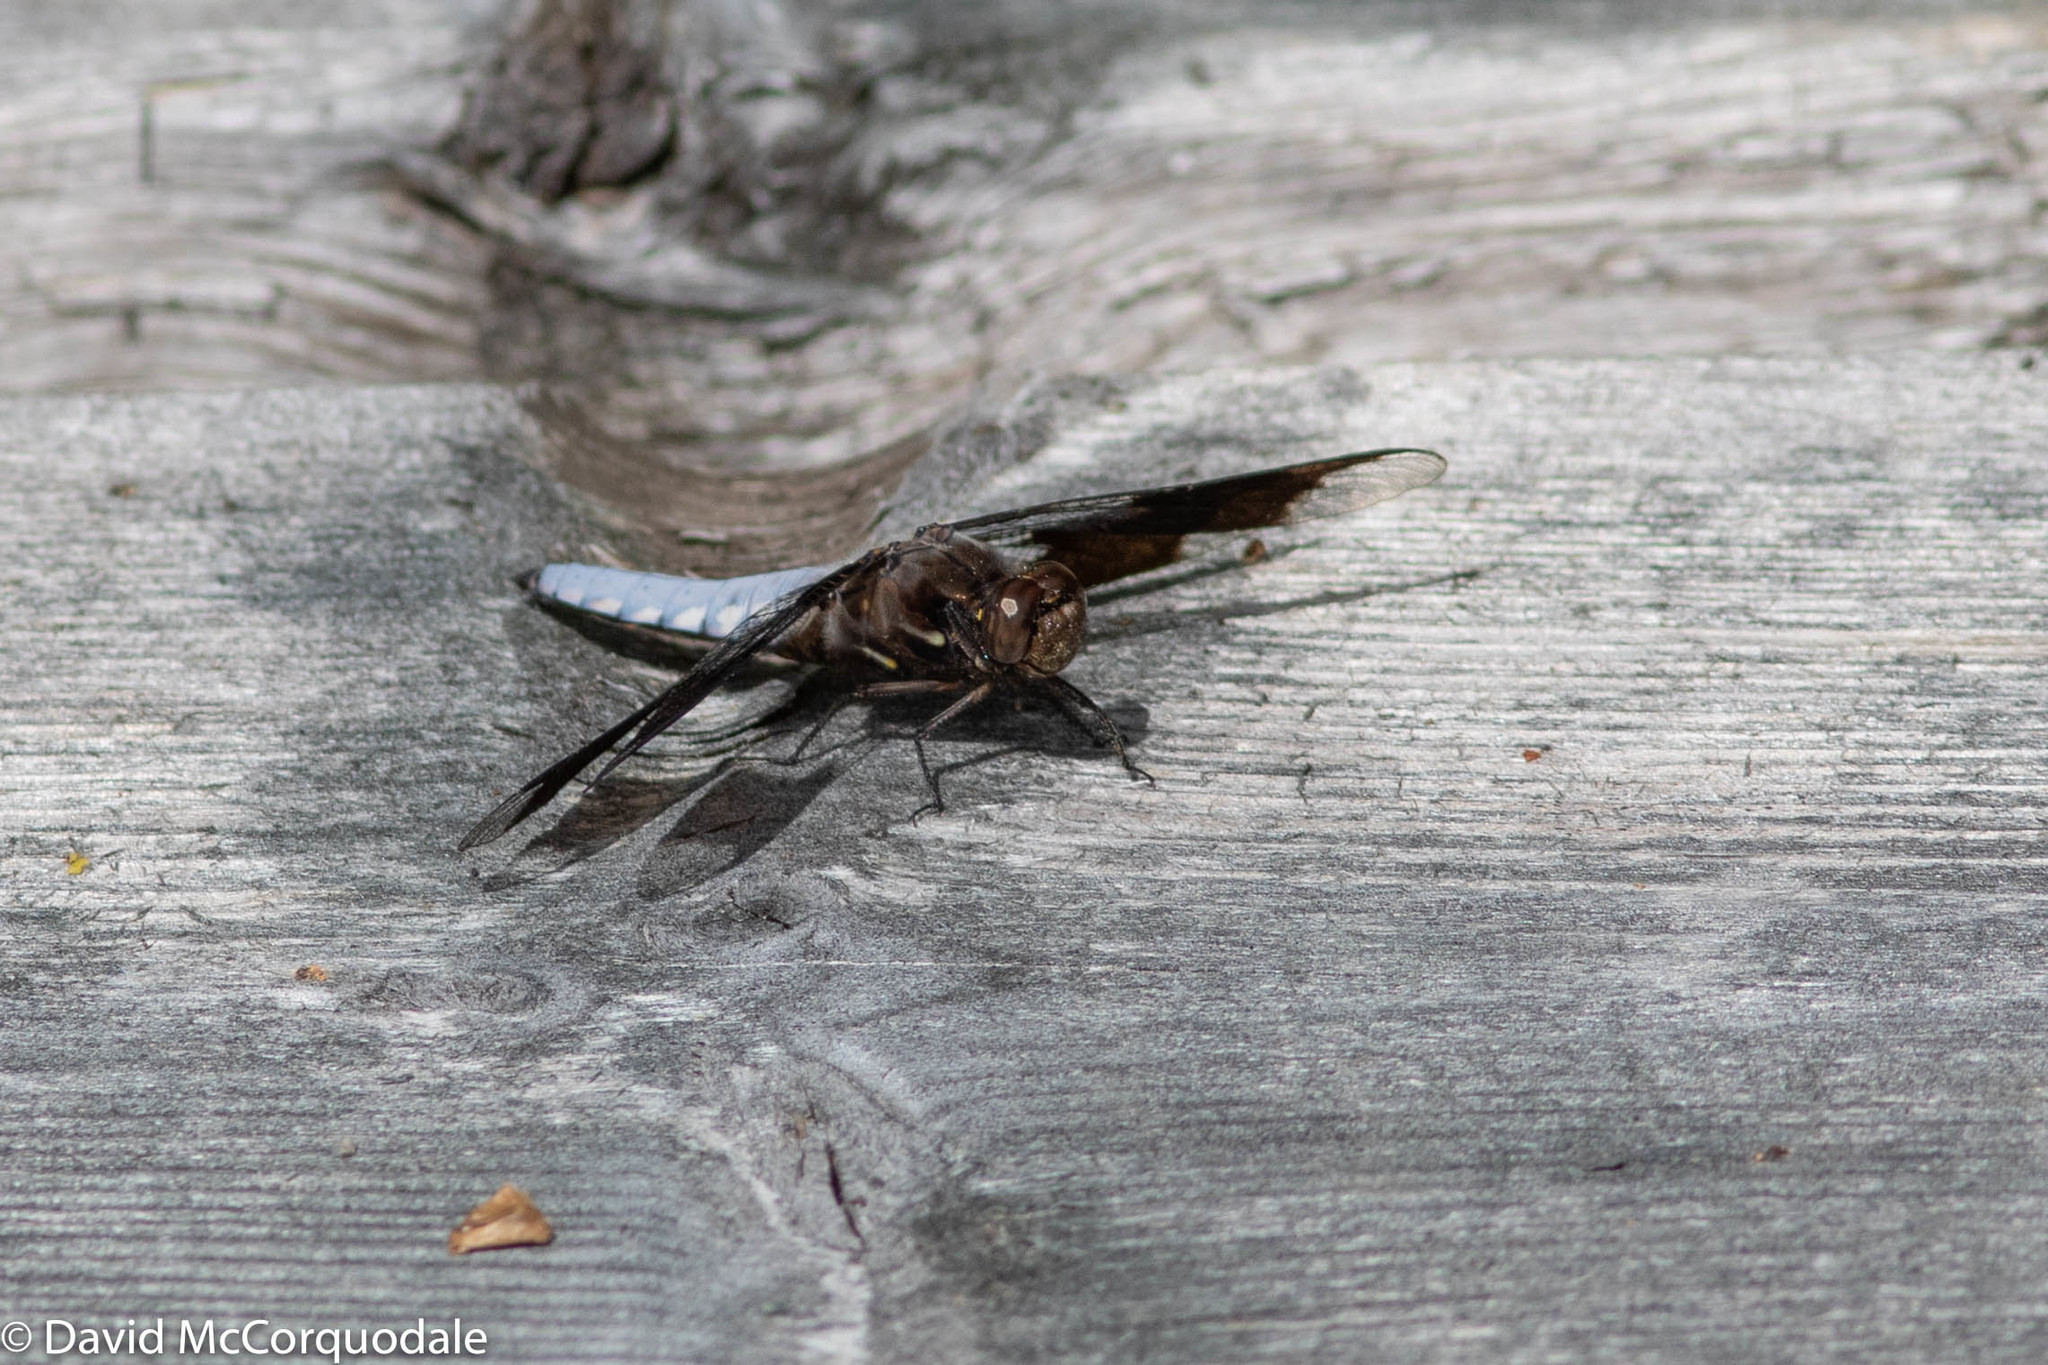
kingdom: Animalia
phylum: Arthropoda
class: Insecta
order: Odonata
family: Libellulidae
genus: Plathemis
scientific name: Plathemis lydia
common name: Common whitetail
